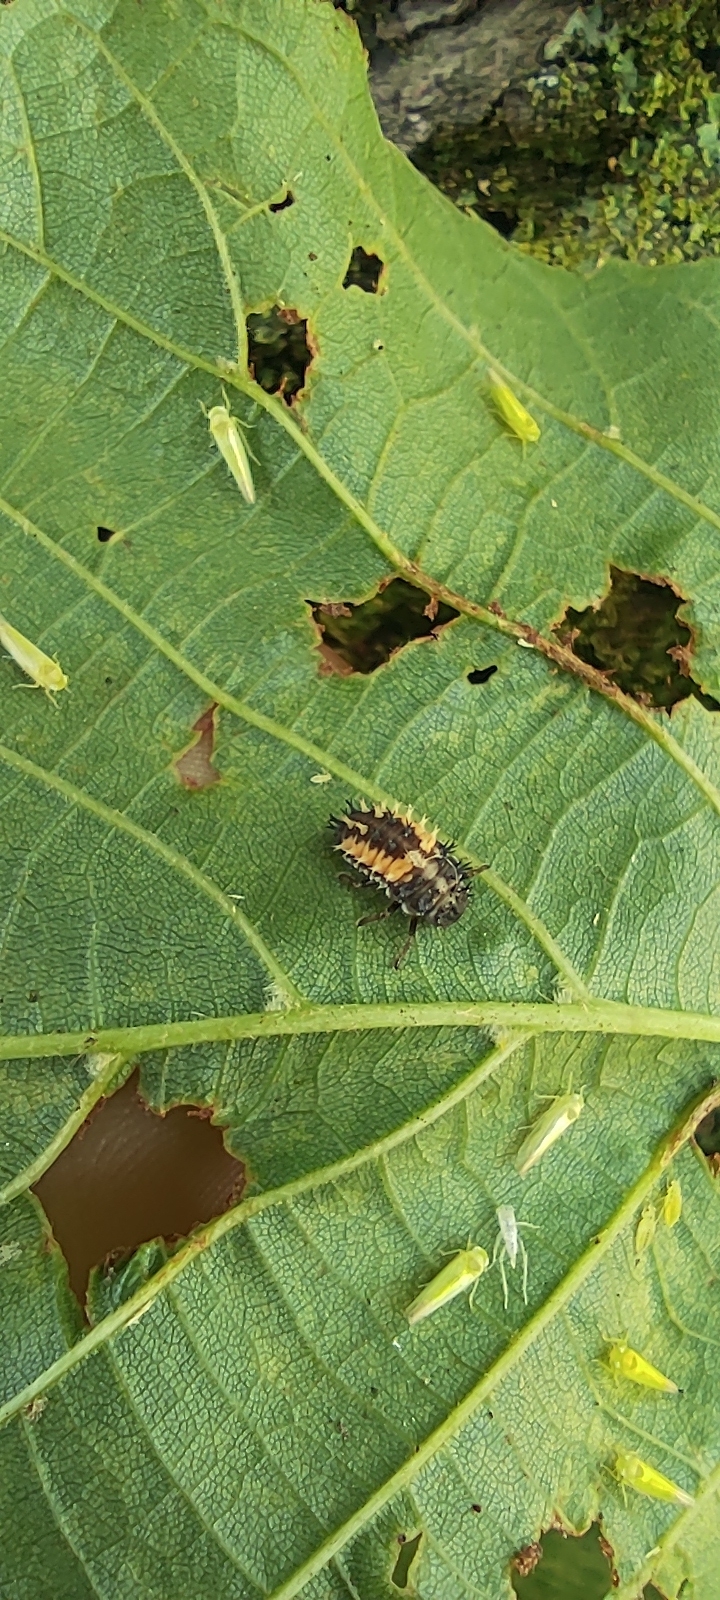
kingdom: Animalia
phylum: Arthropoda
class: Insecta
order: Coleoptera
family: Coccinellidae
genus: Harmonia
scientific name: Harmonia axyridis
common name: Harlequin ladybird
